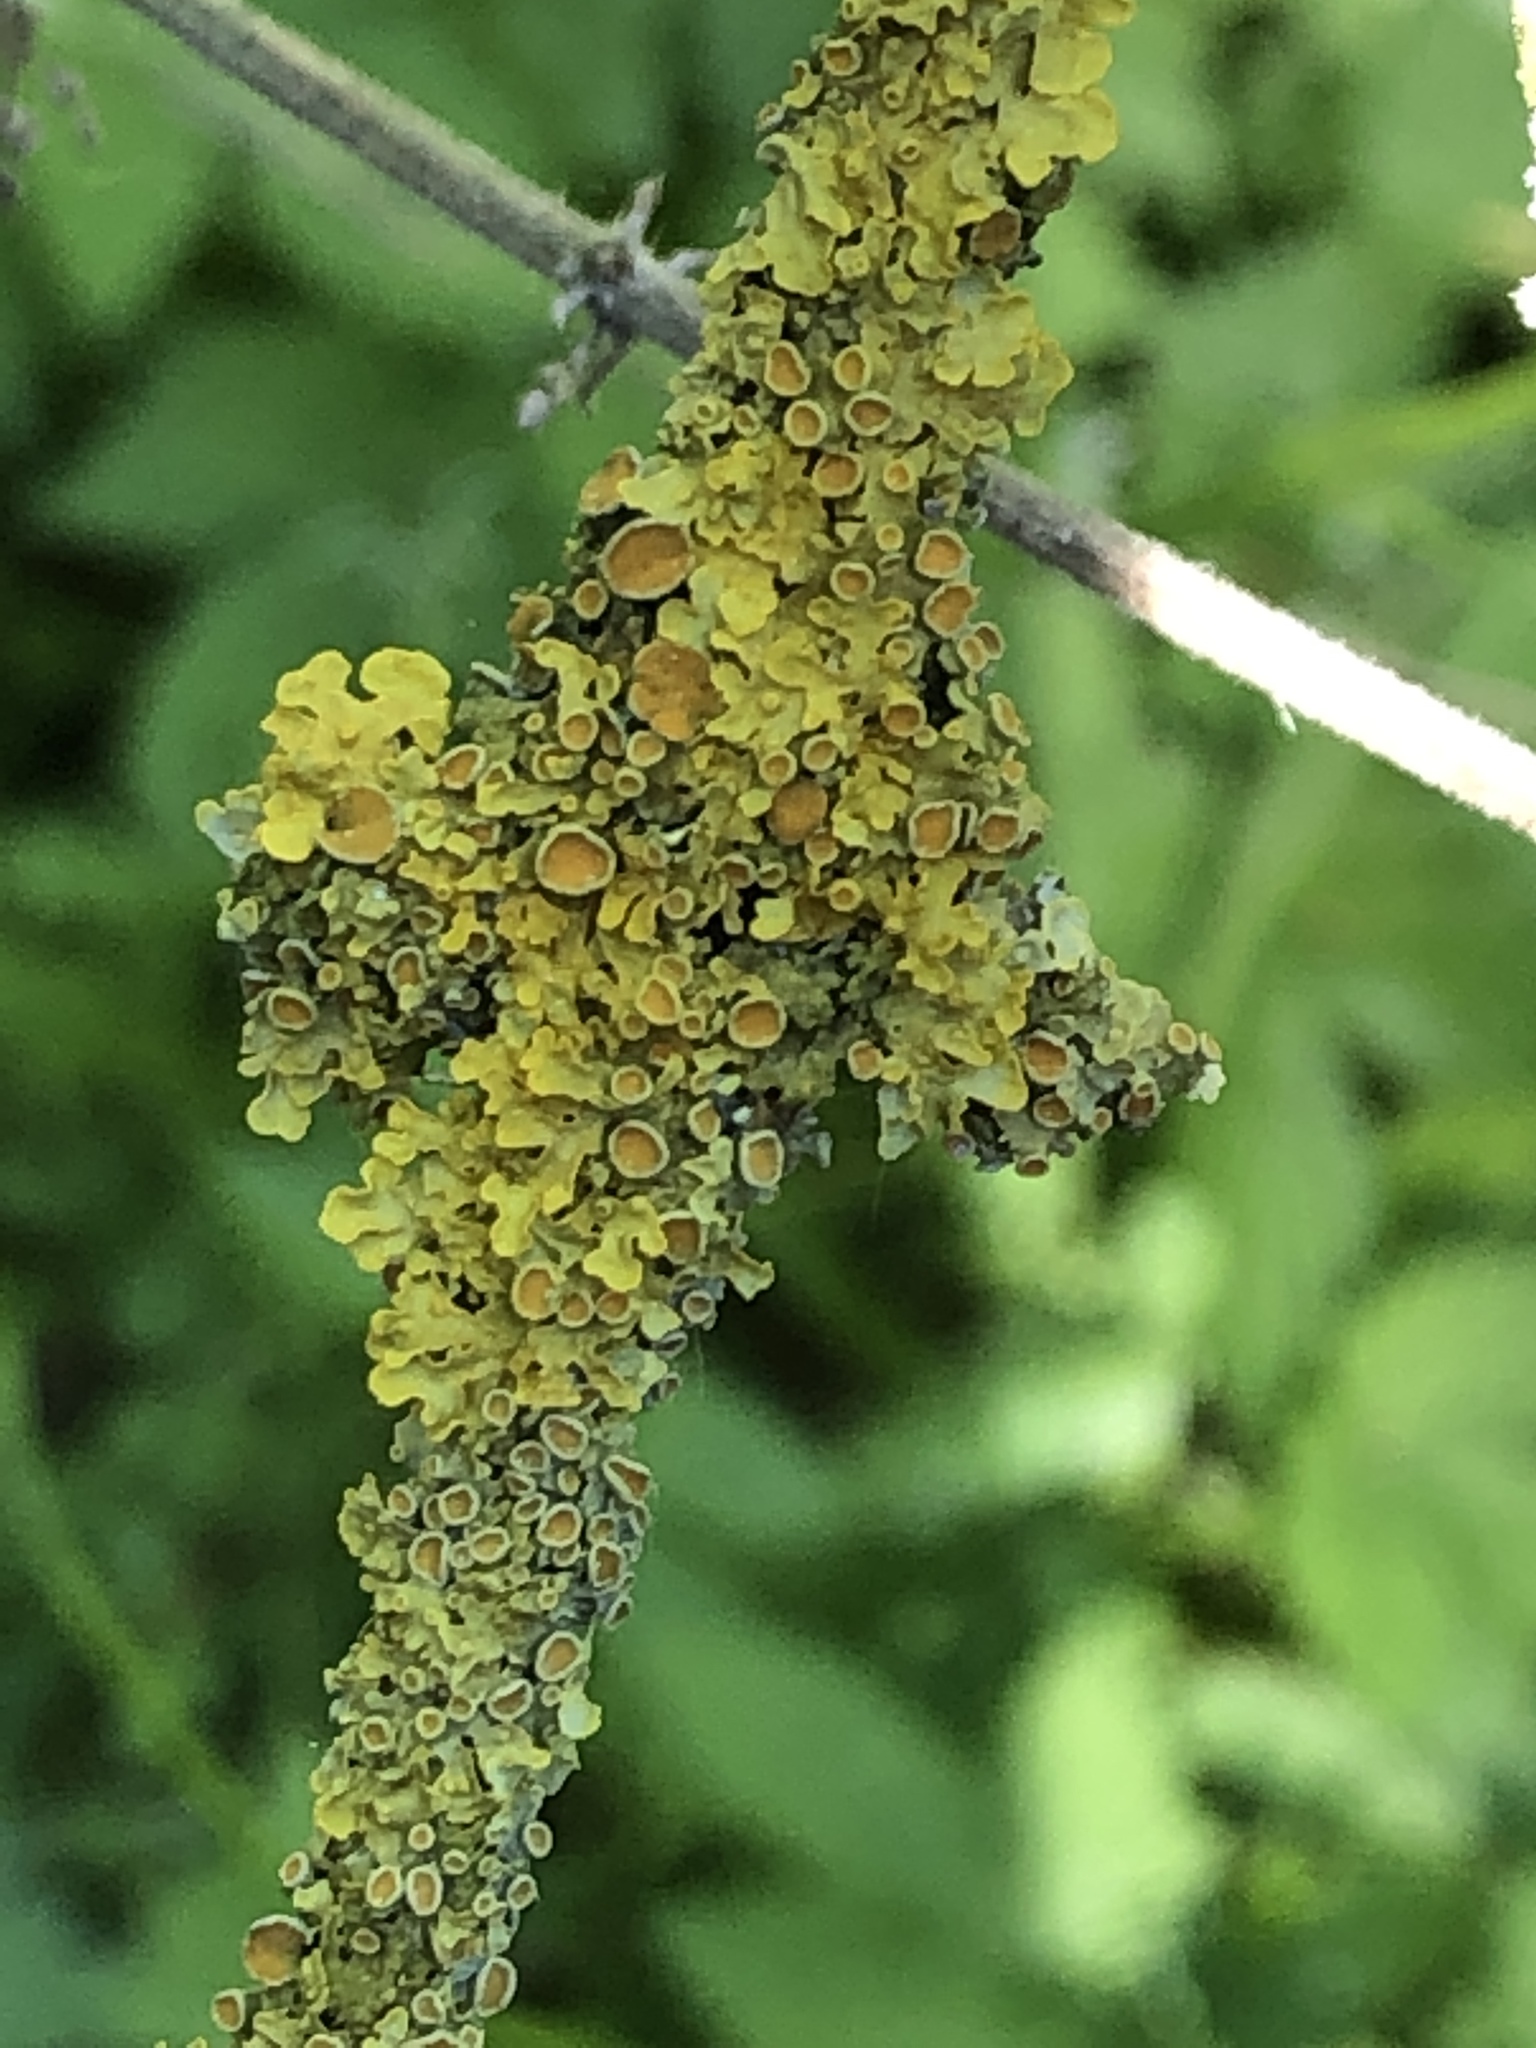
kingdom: Fungi
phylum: Ascomycota
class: Lecanoromycetes
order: Teloschistales
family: Teloschistaceae
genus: Xanthoria
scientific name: Xanthoria parietina
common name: Common orange lichen
